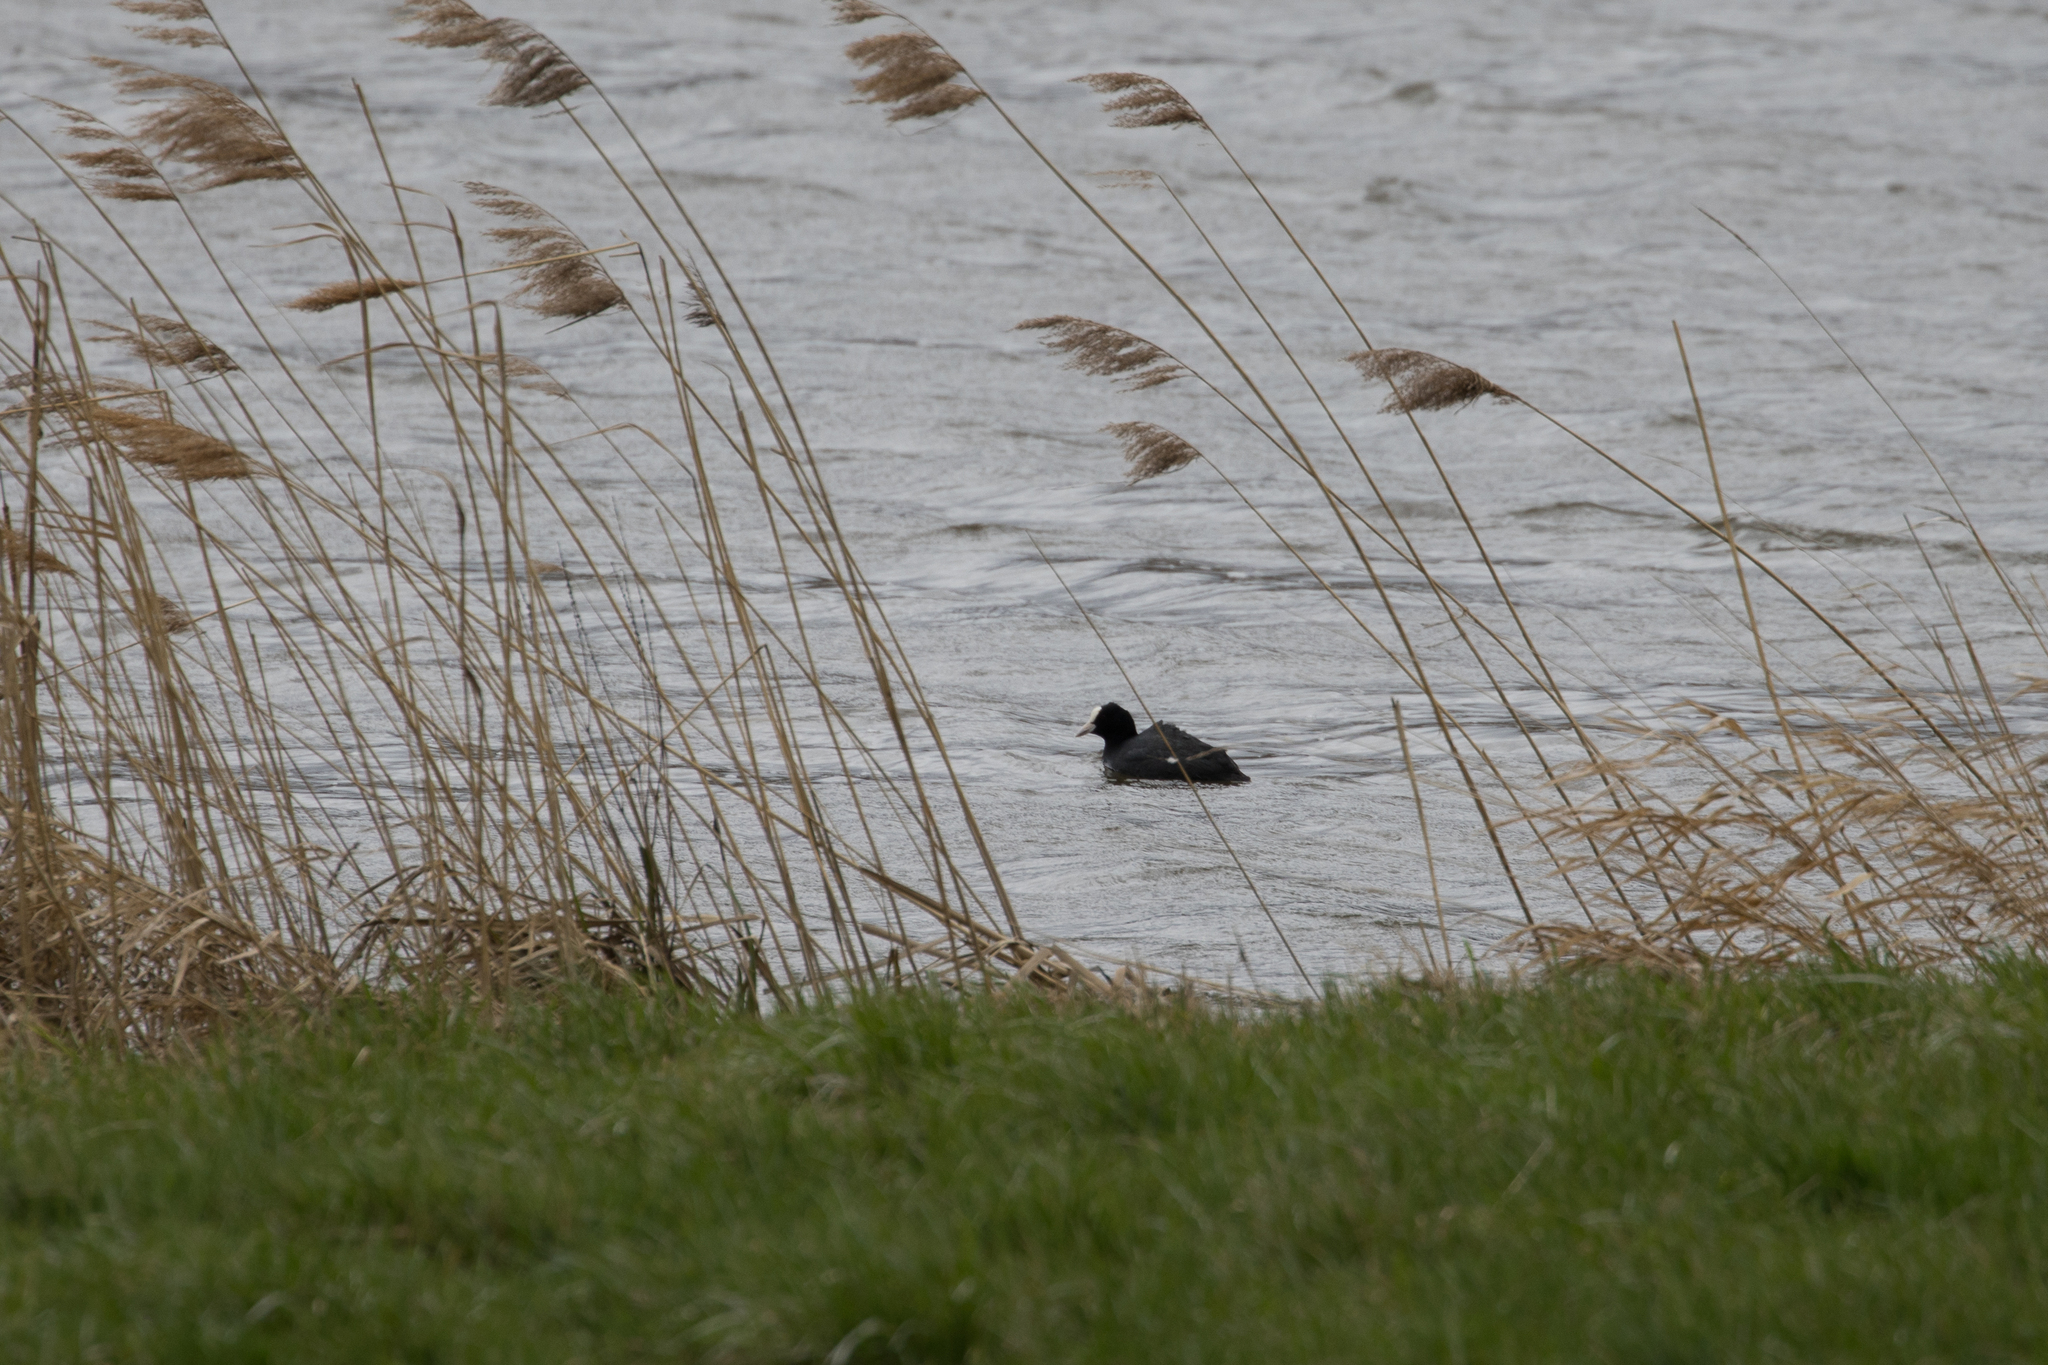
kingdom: Animalia
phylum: Chordata
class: Aves
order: Gruiformes
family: Rallidae
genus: Fulica
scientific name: Fulica atra
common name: Eurasian coot
